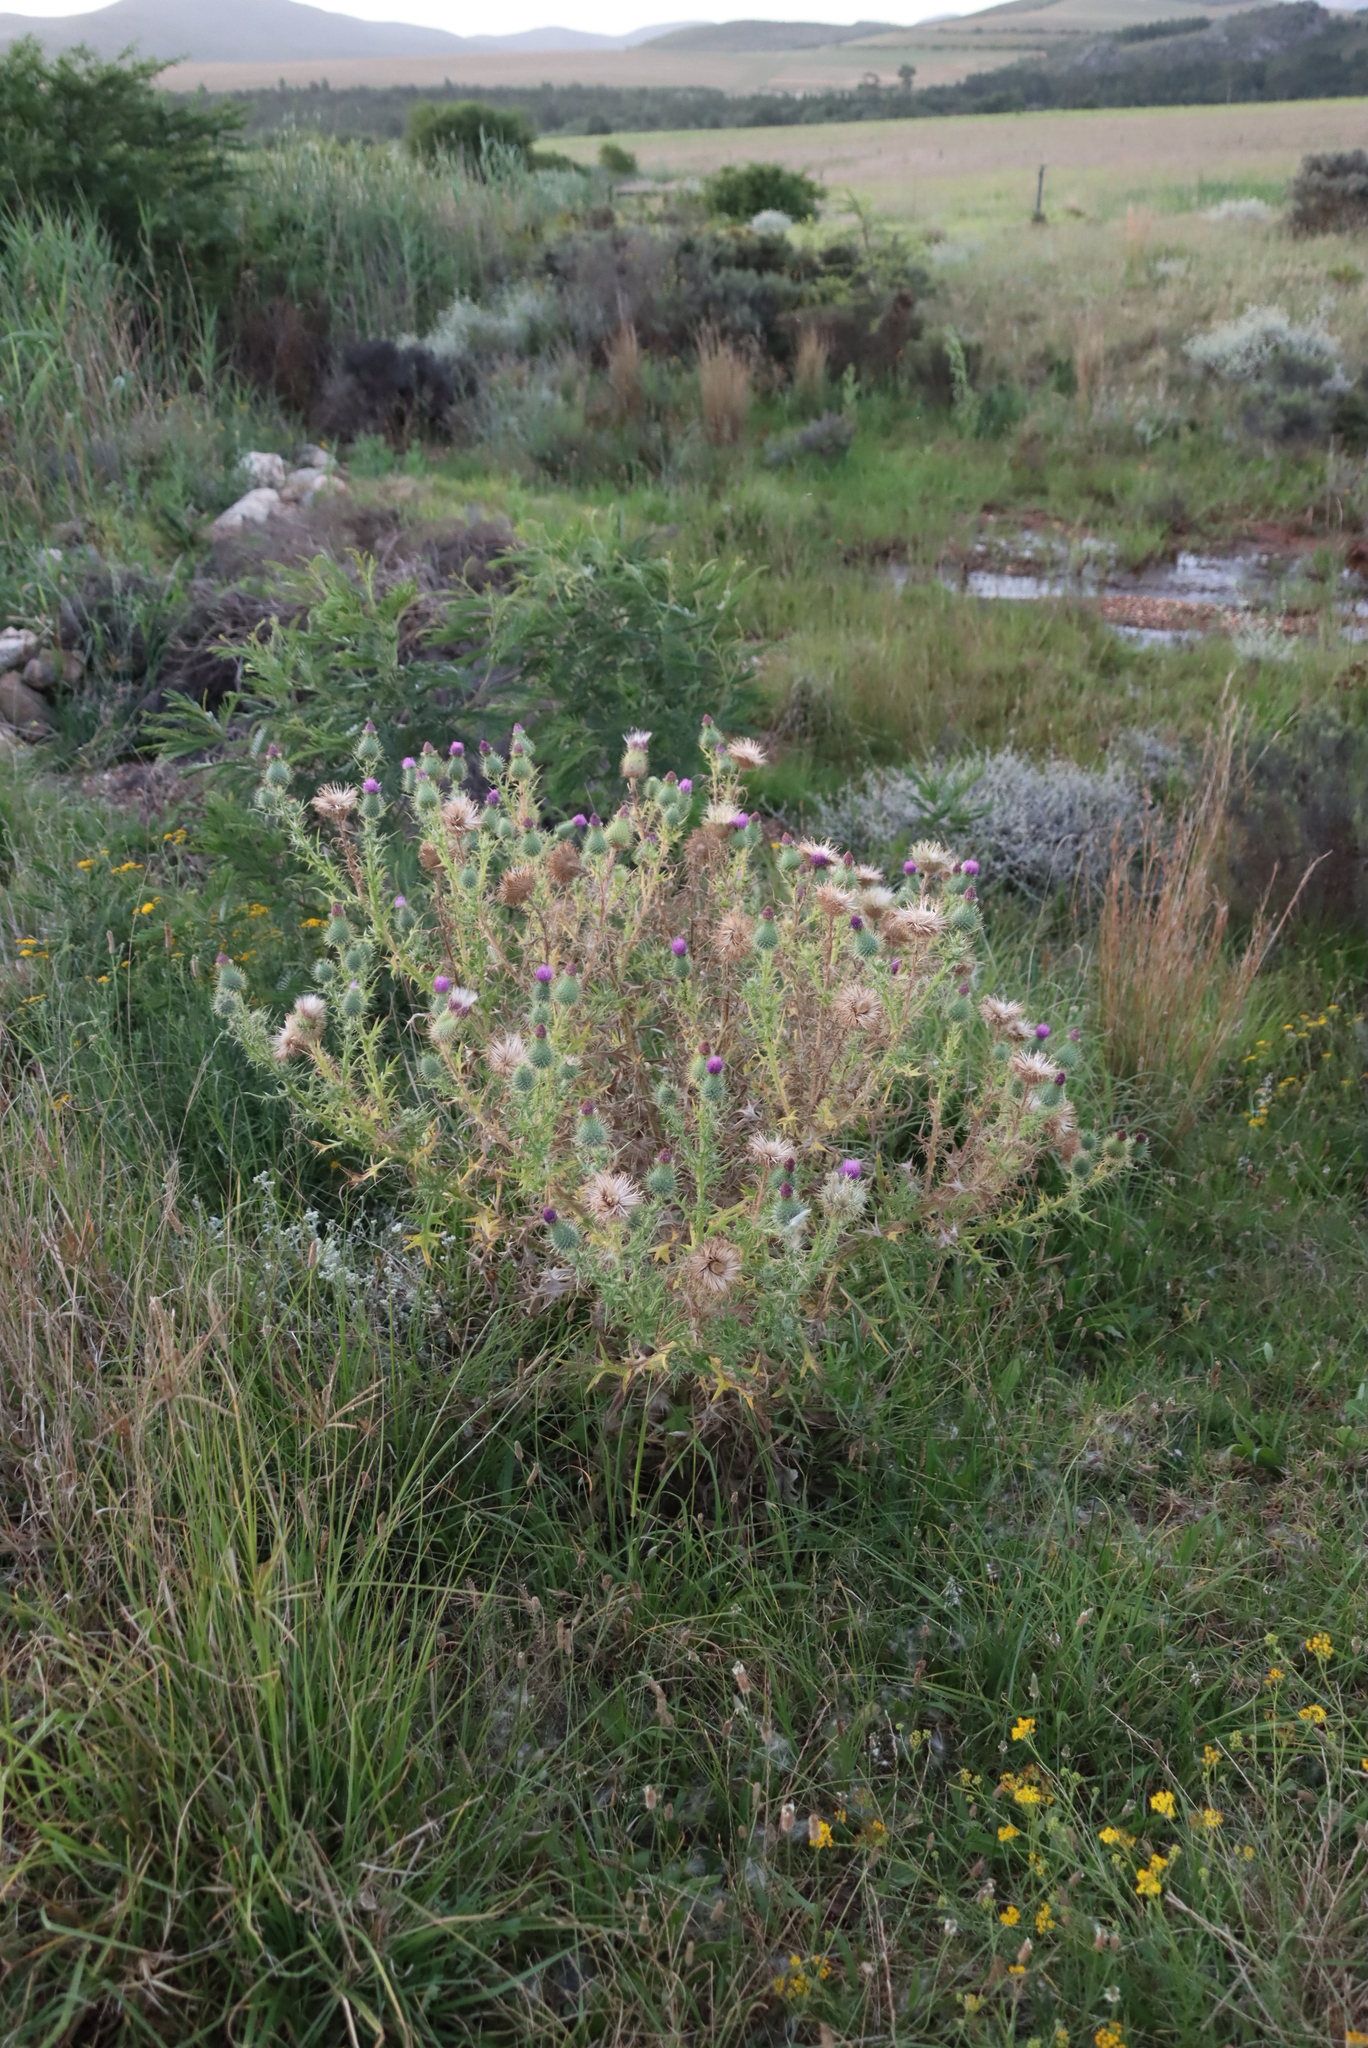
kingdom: Plantae
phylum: Tracheophyta
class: Magnoliopsida
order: Asterales
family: Asteraceae
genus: Cirsium
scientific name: Cirsium vulgare
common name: Bull thistle
